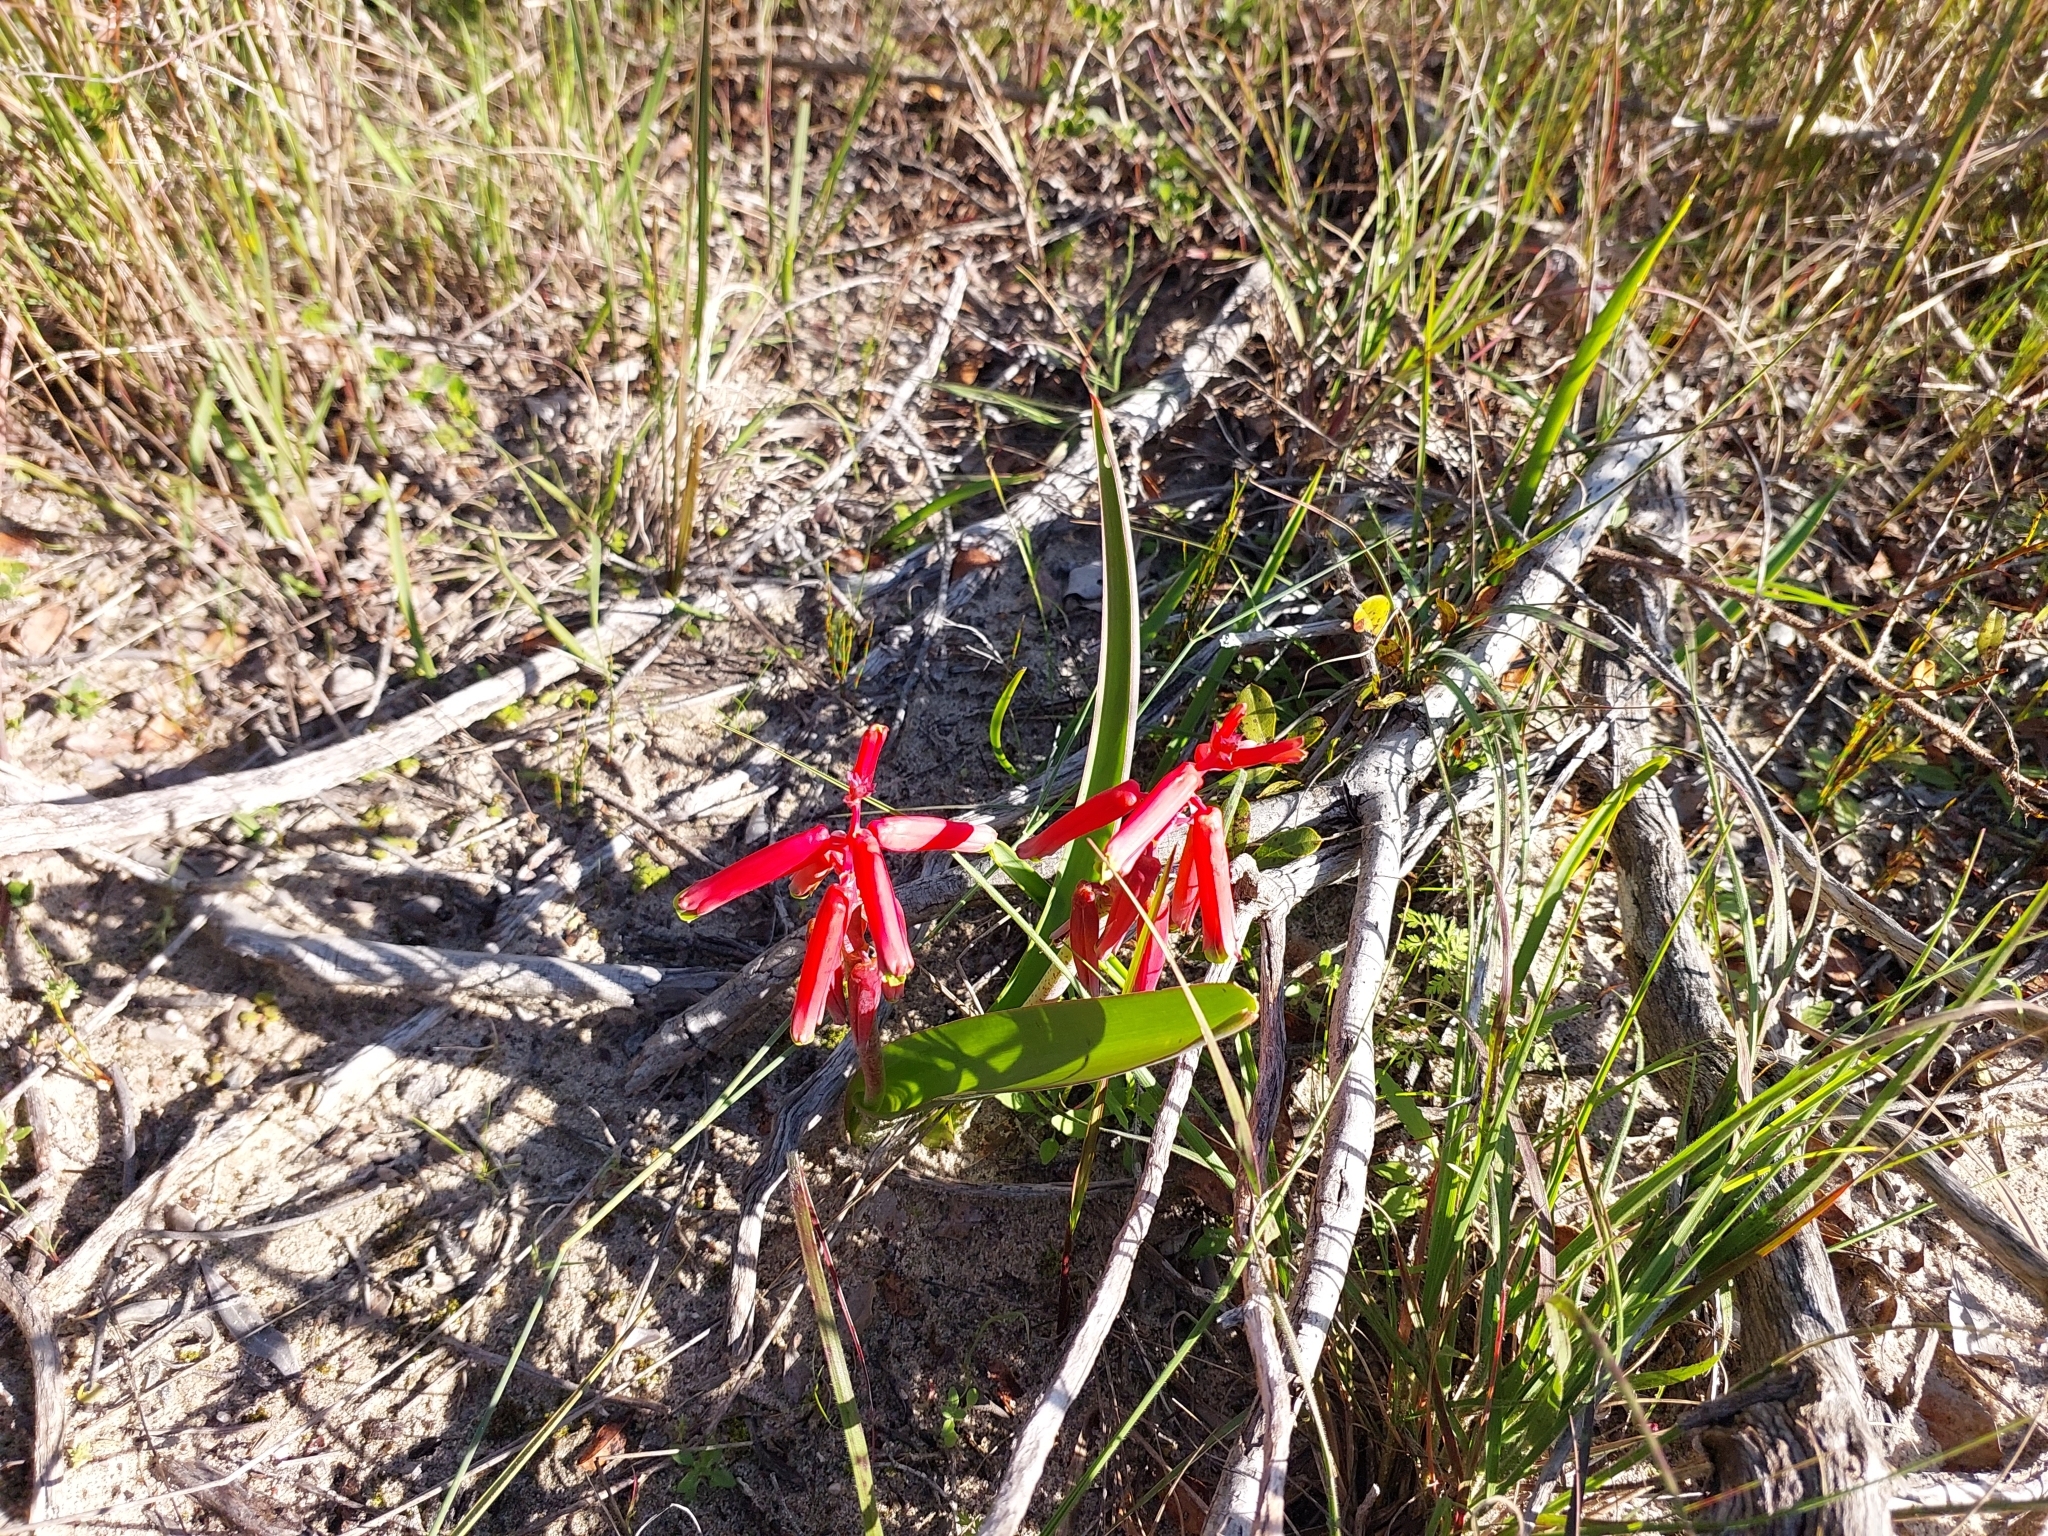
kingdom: Plantae
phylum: Tracheophyta
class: Liliopsida
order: Asparagales
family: Asparagaceae
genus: Lachenalia
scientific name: Lachenalia bulbifera
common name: Red lachenalia
